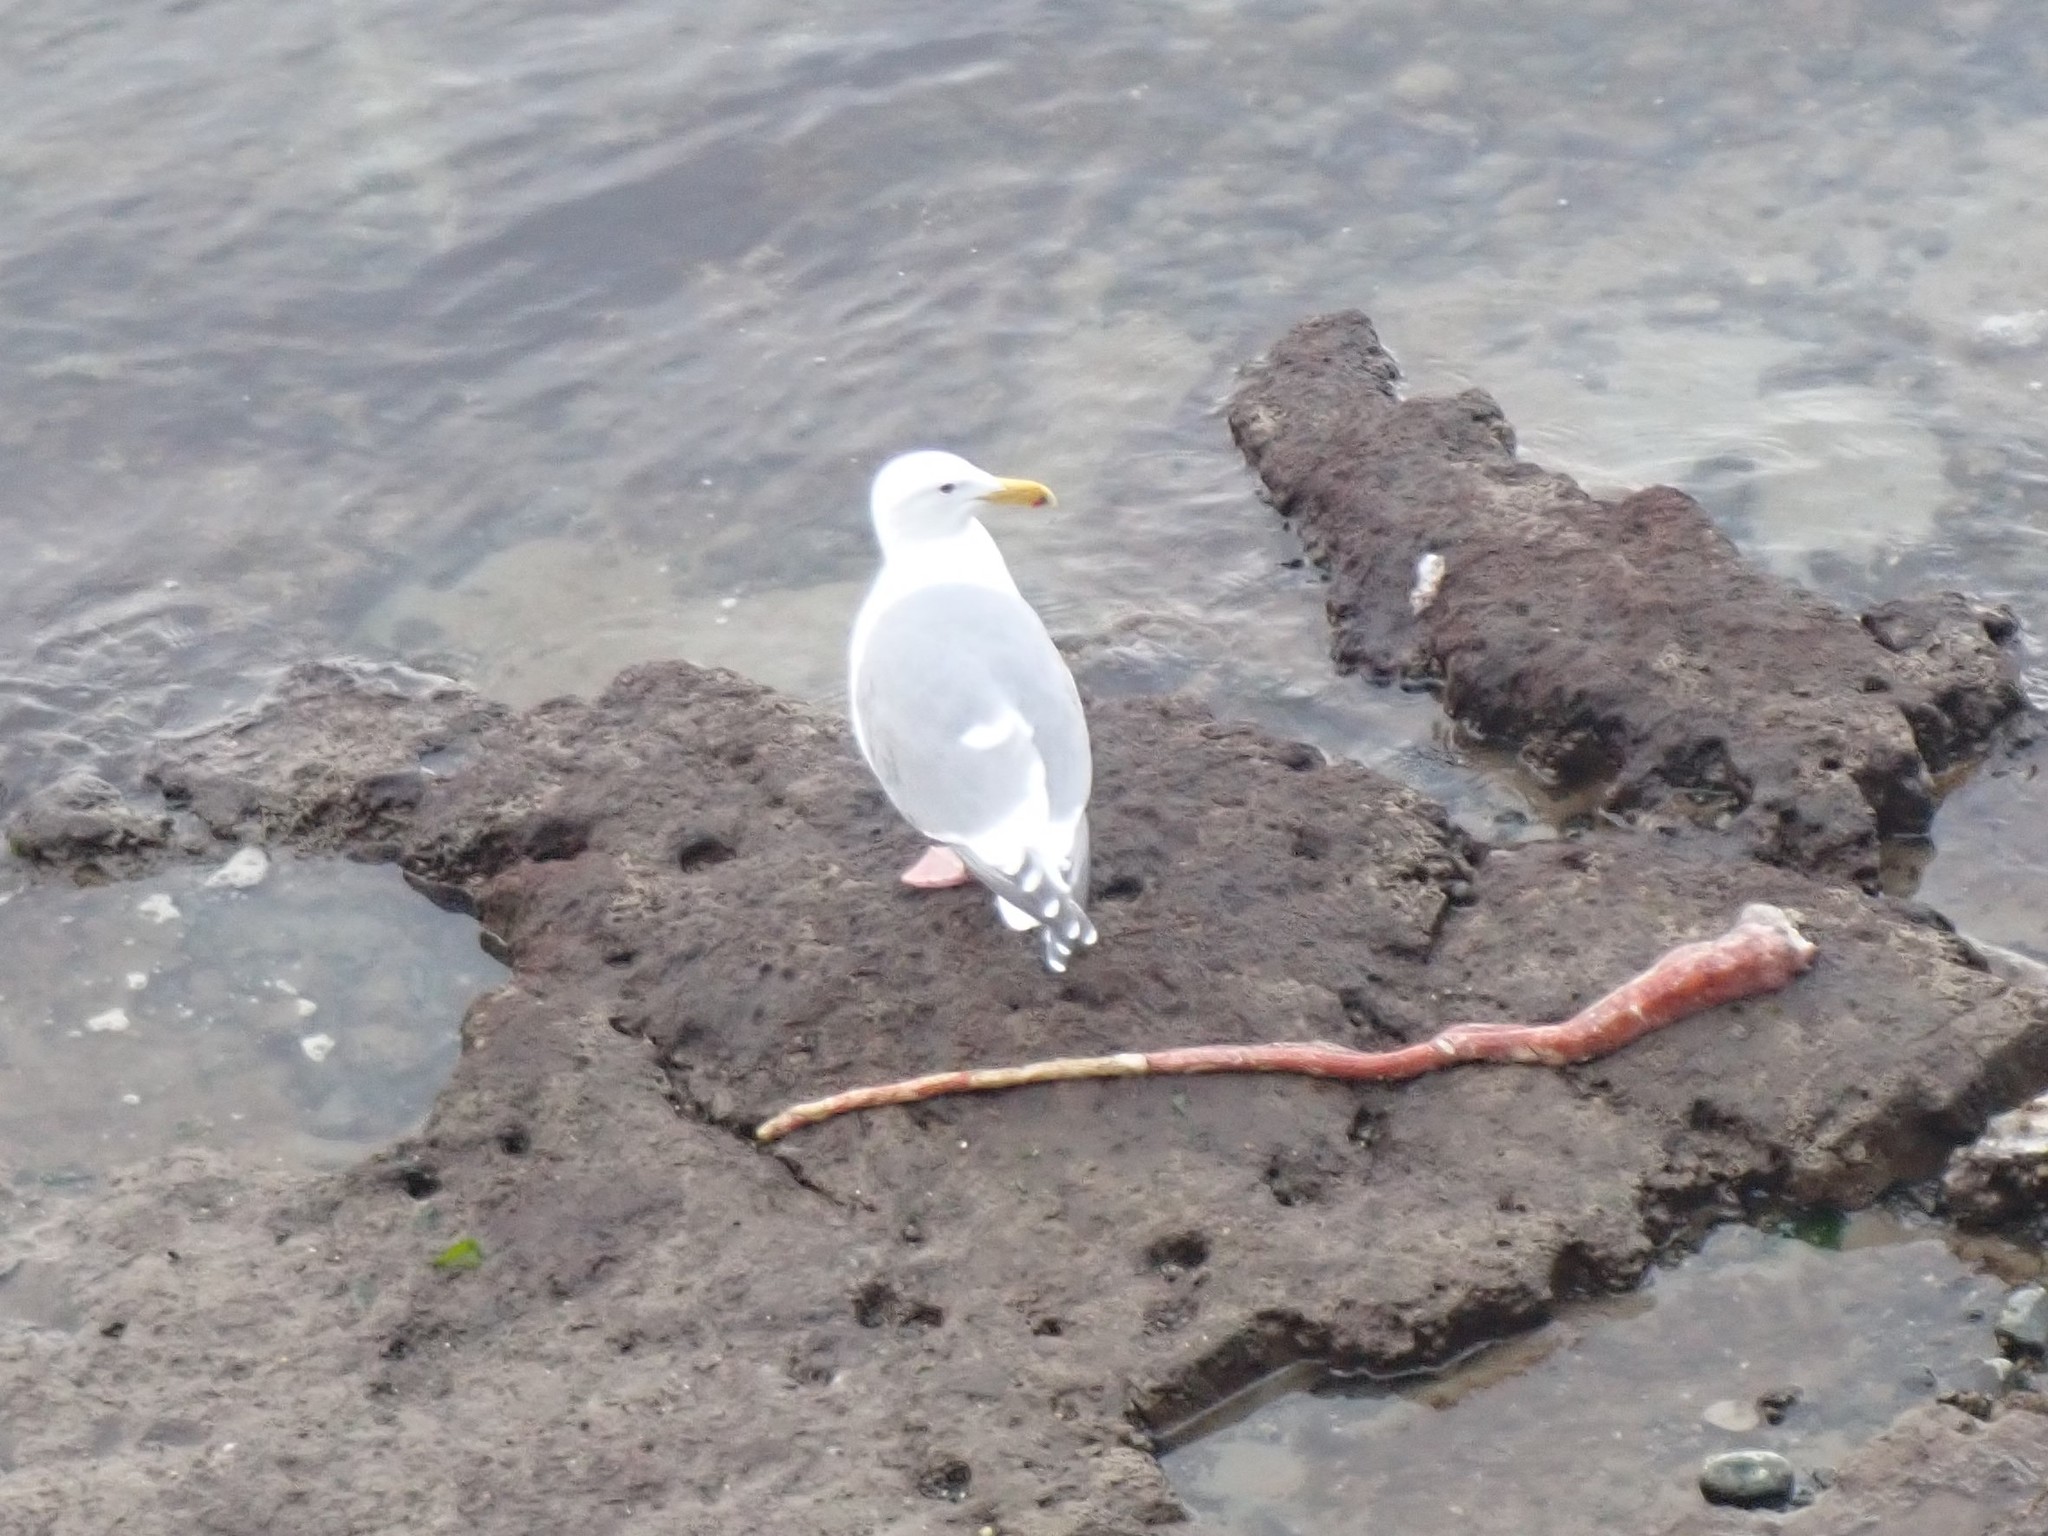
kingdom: Animalia
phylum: Chordata
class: Aves
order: Charadriiformes
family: Laridae
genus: Larus
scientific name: Larus
